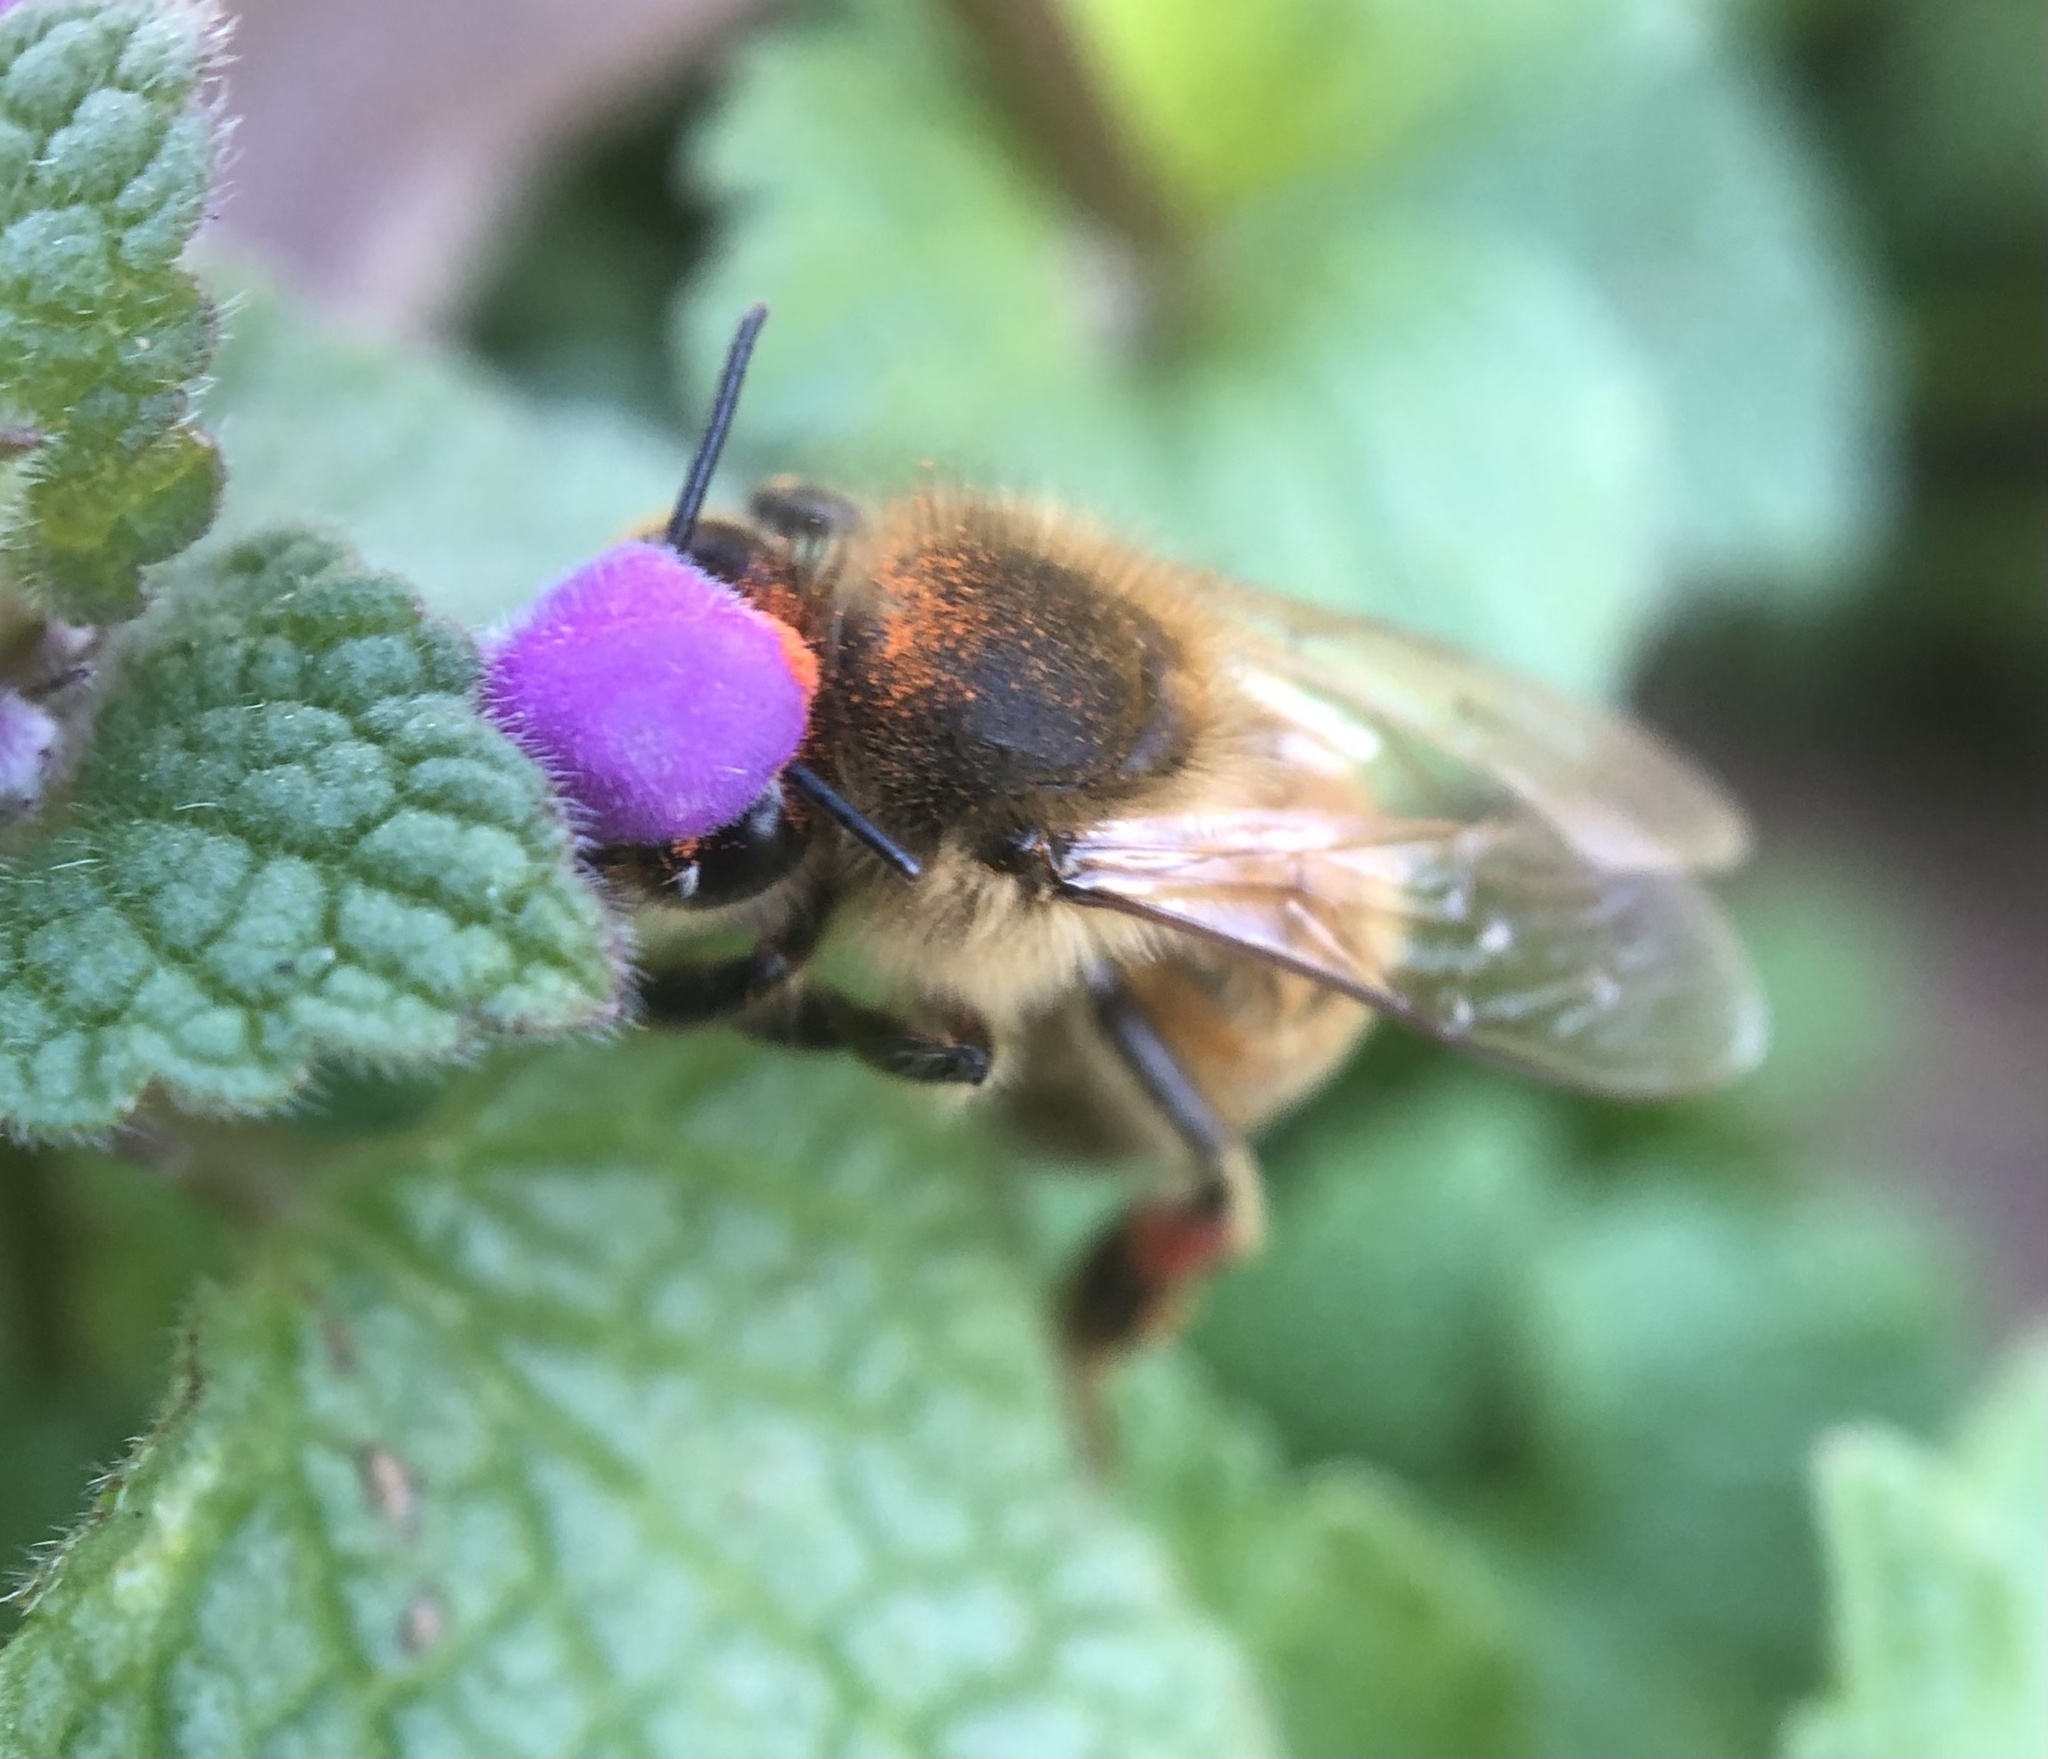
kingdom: Animalia
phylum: Arthropoda
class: Insecta
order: Hymenoptera
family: Apidae
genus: Apis
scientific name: Apis mellifera
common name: Honey bee
